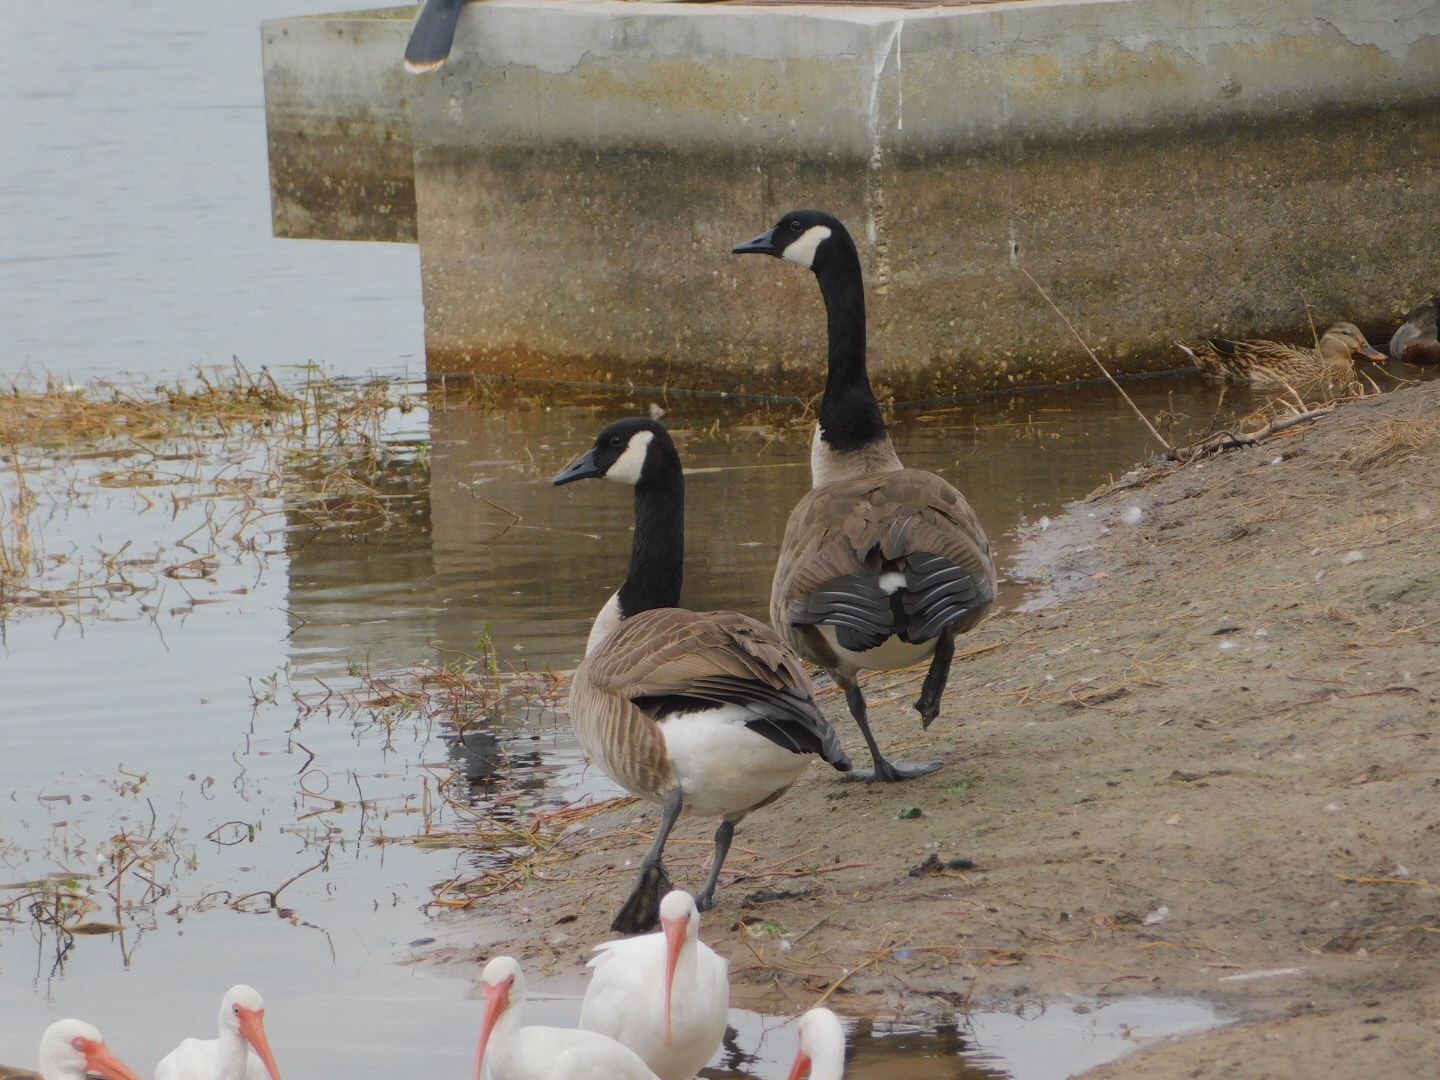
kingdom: Animalia
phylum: Chordata
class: Aves
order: Anseriformes
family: Anatidae
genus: Branta
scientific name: Branta canadensis
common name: Canada goose
